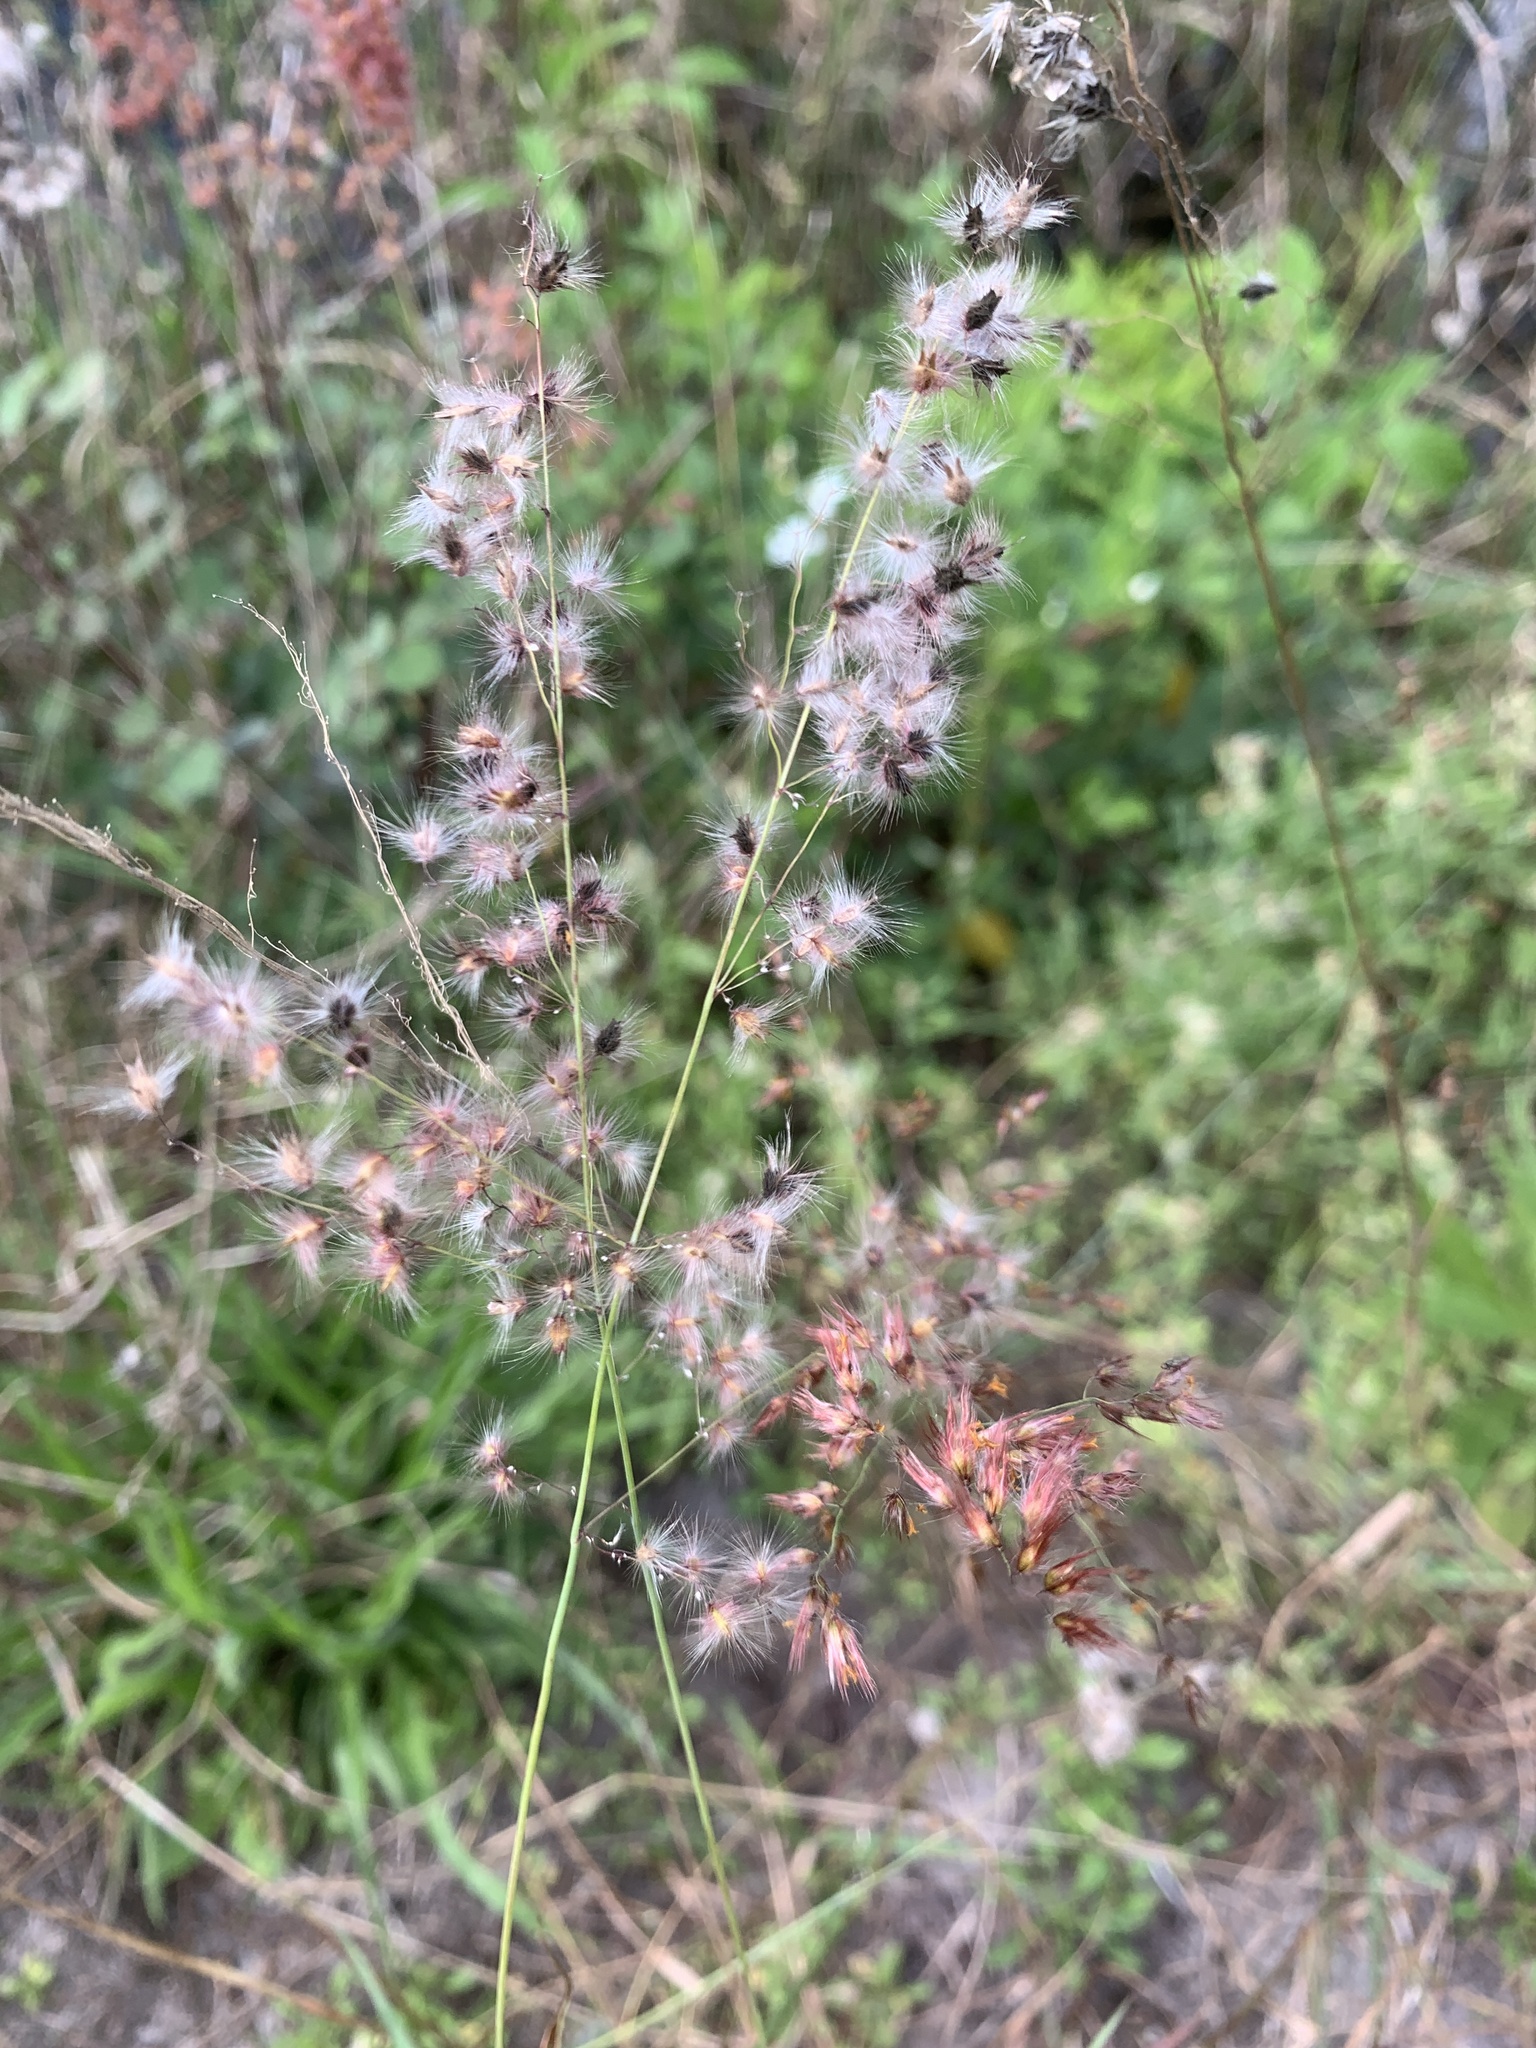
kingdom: Plantae
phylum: Tracheophyta
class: Liliopsida
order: Poales
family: Poaceae
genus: Melinis
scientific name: Melinis repens
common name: Rose natal grass
